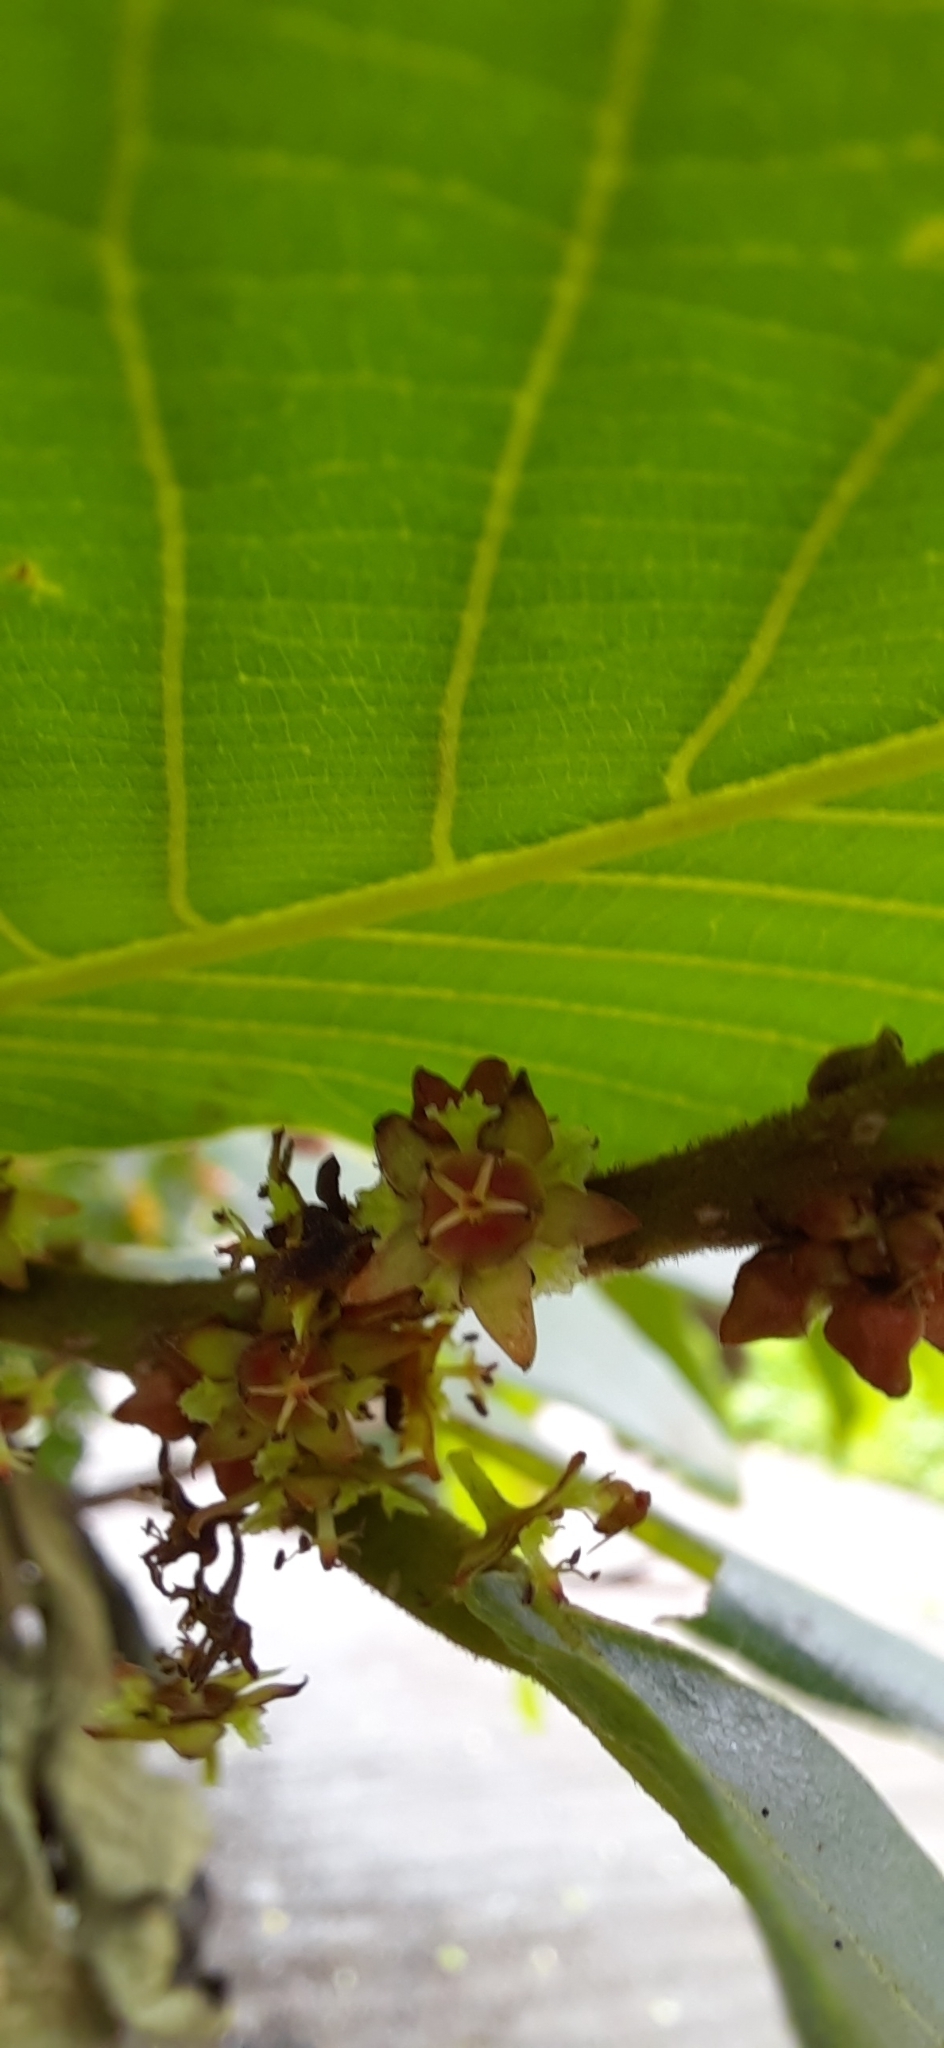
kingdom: Plantae
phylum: Tracheophyta
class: Magnoliopsida
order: Malpighiales
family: Phyllanthaceae
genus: Bridelia
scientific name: Bridelia retusa
